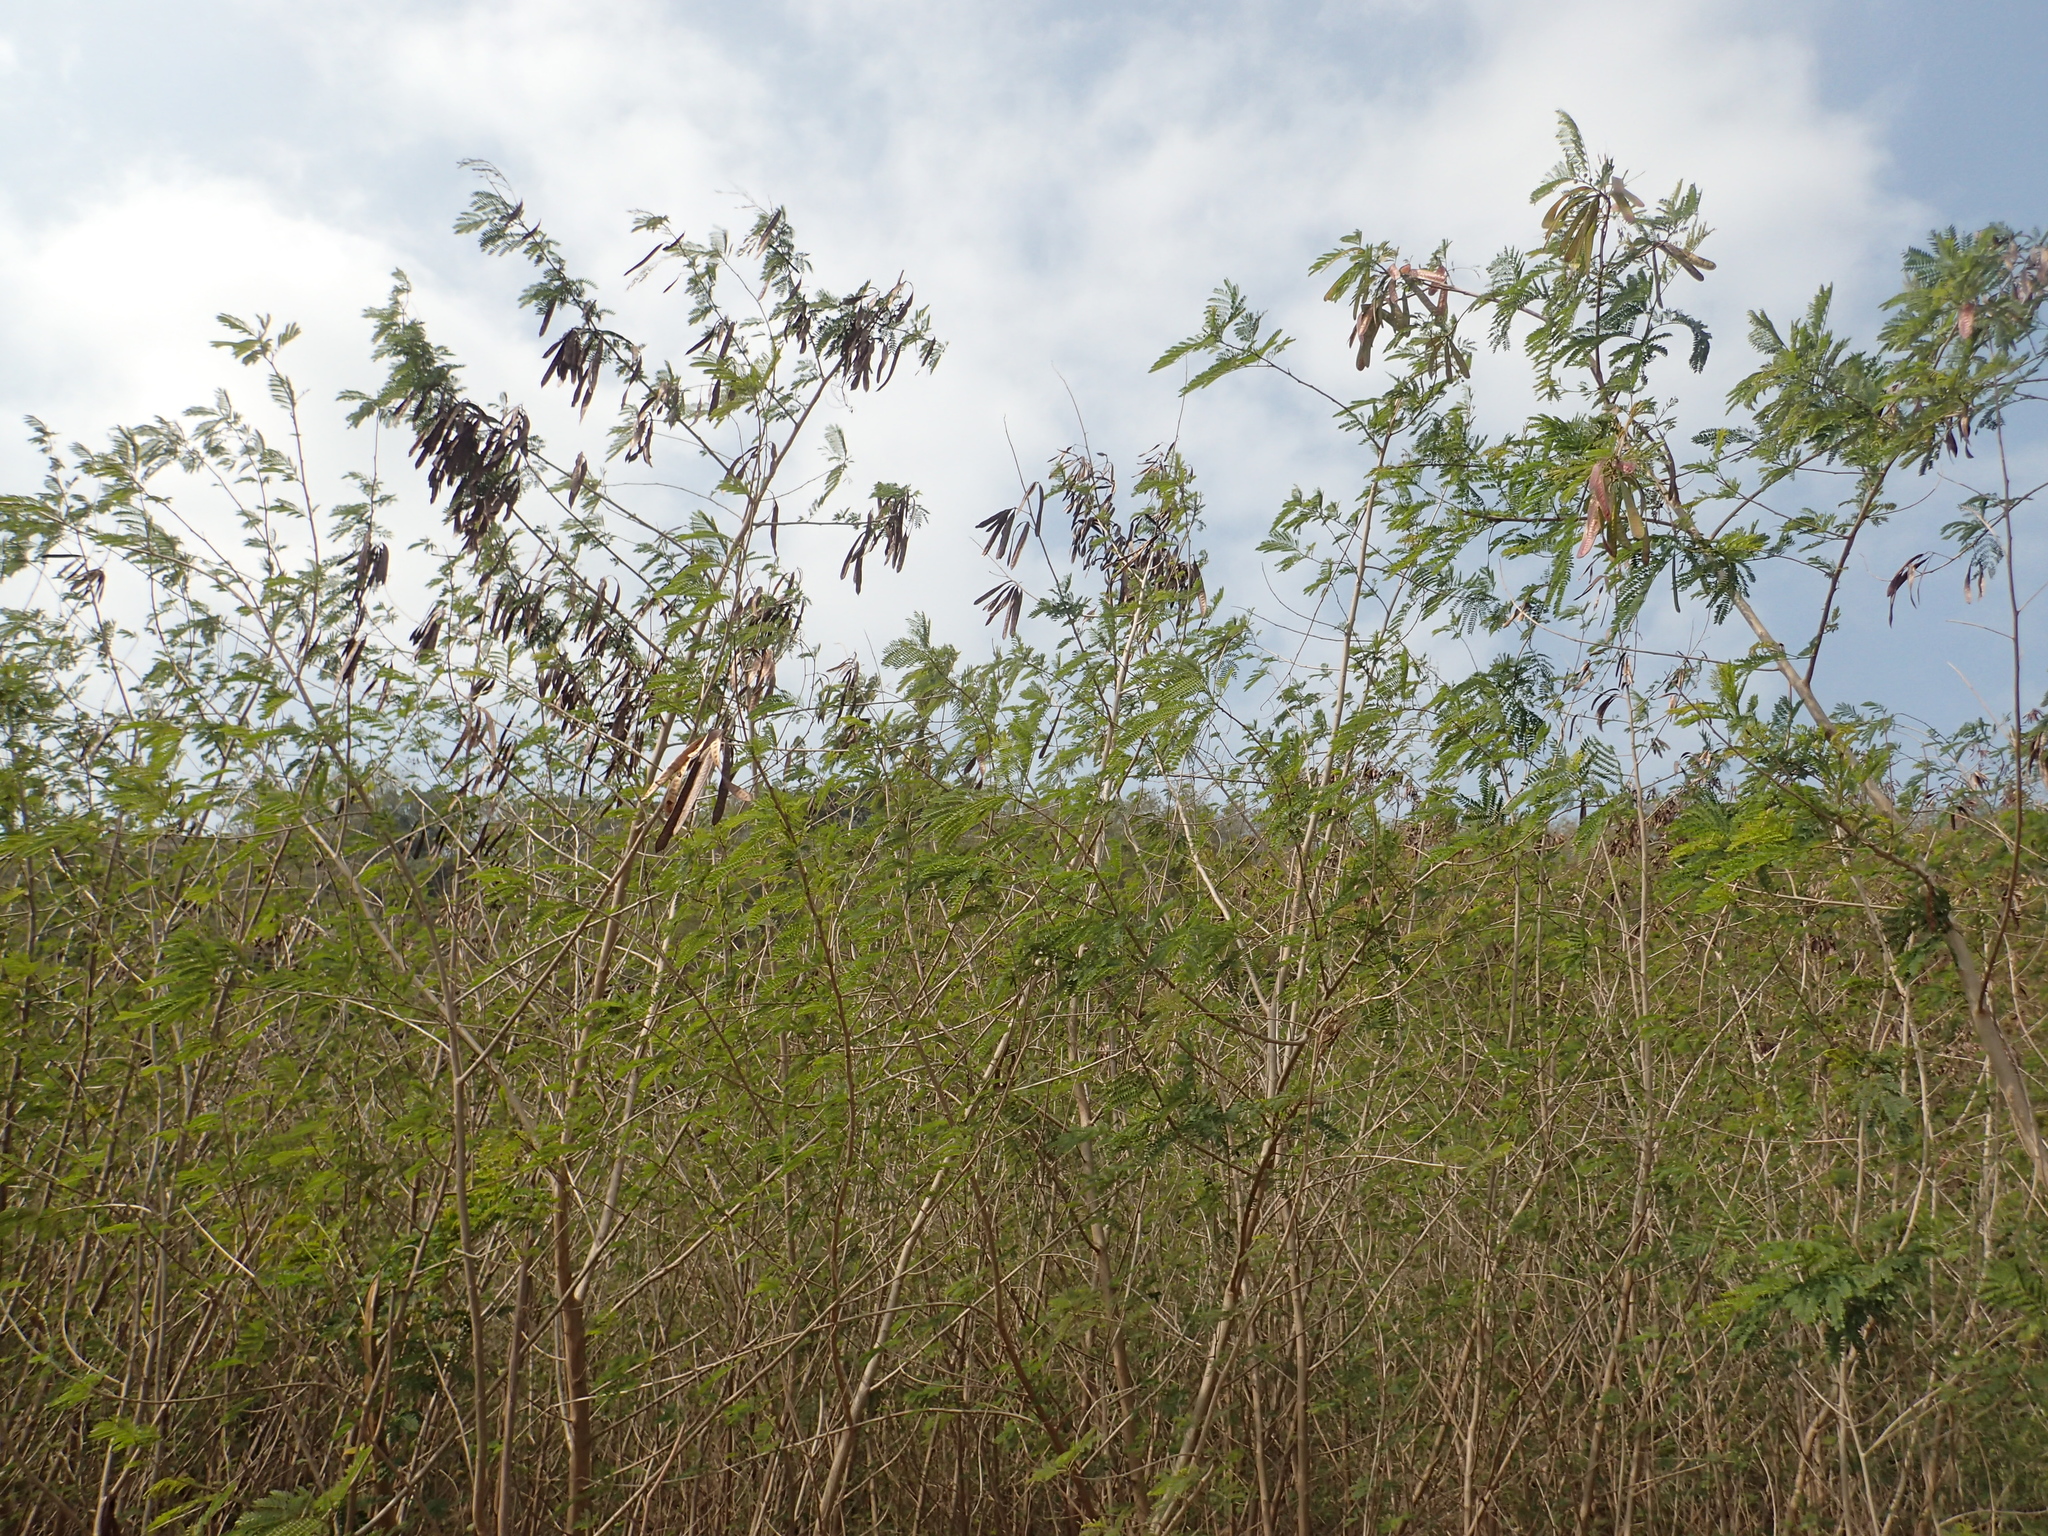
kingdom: Plantae
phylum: Tracheophyta
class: Magnoliopsida
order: Fabales
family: Fabaceae
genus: Leucaena
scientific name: Leucaena leucocephala
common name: White leadtree
